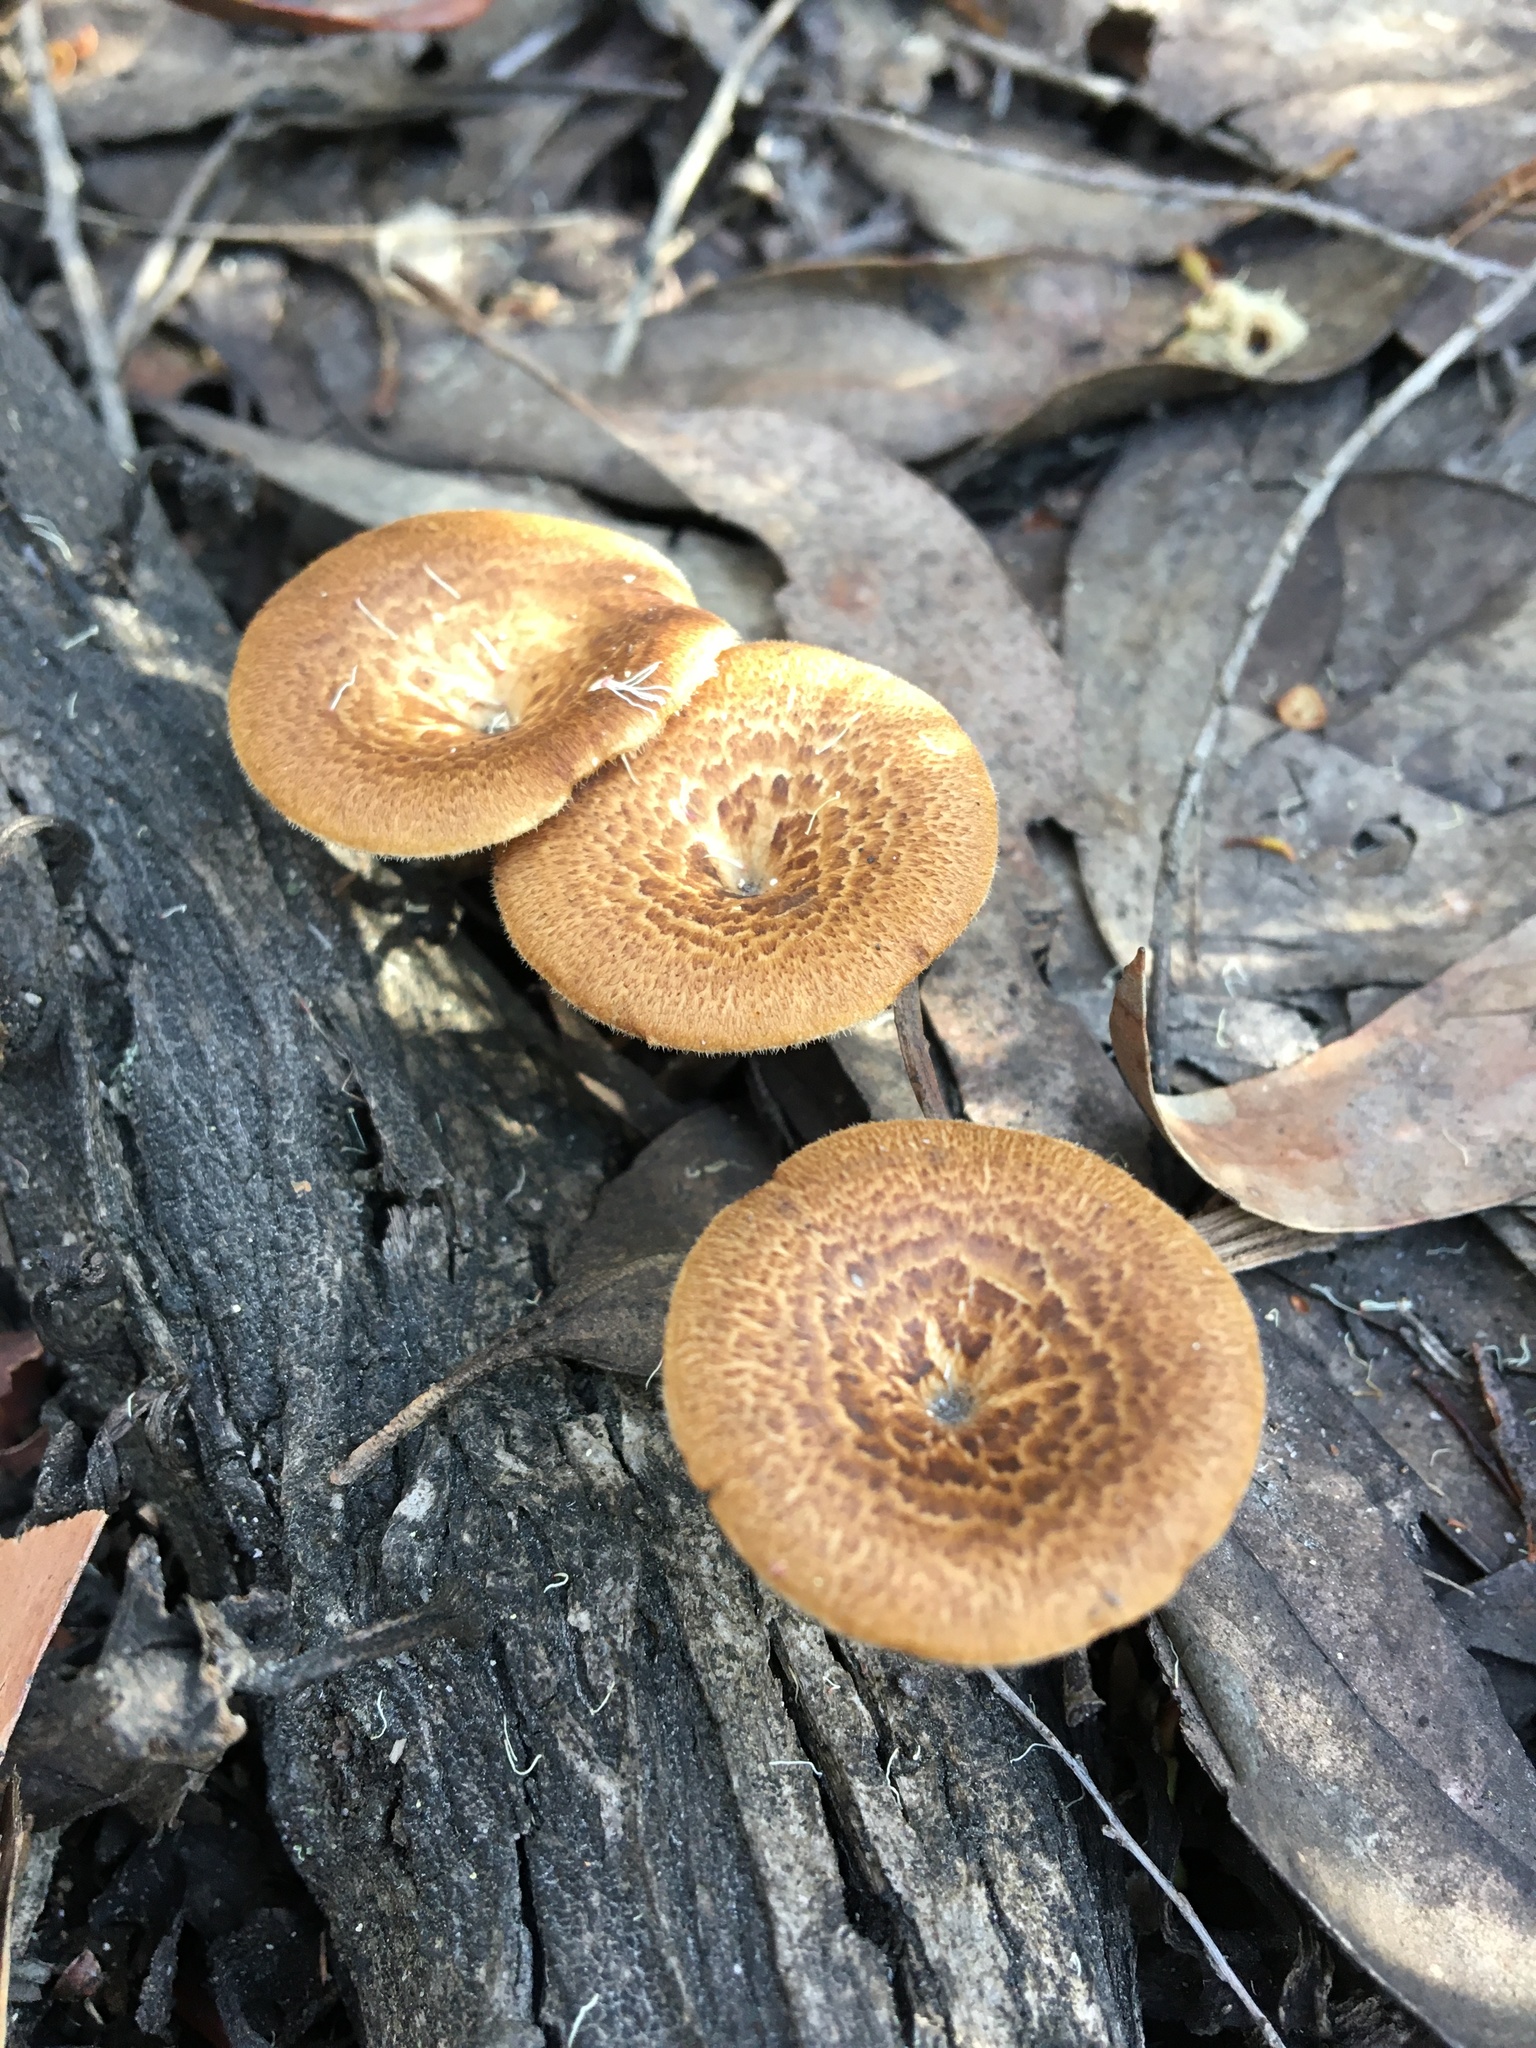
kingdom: Fungi
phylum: Basidiomycota
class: Agaricomycetes
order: Polyporales
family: Polyporaceae
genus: Lentinus
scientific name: Lentinus arcularius
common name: Spring polypore
